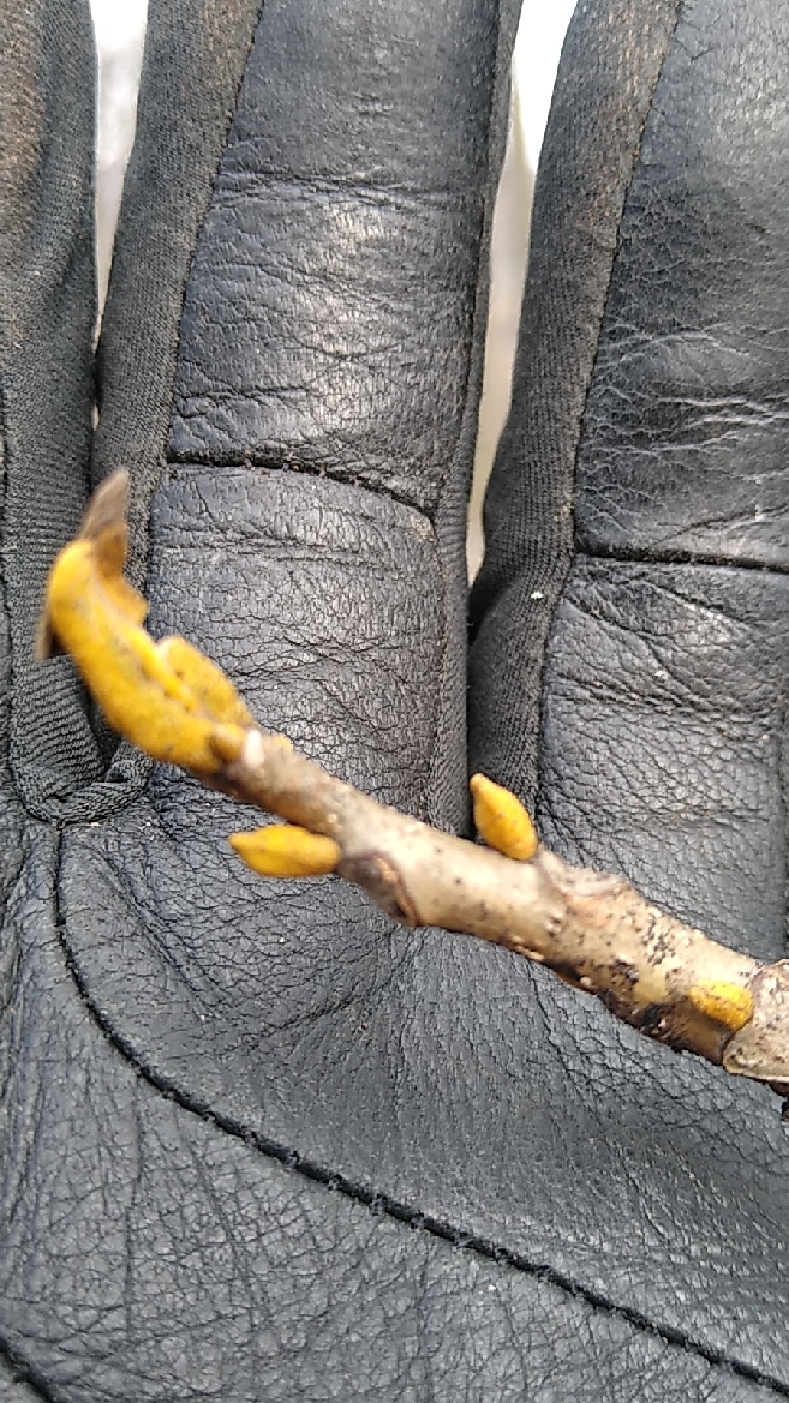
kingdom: Plantae
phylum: Tracheophyta
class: Magnoliopsida
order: Fagales
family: Juglandaceae
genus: Carya
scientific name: Carya cordiformis
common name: Bitternut hickory
